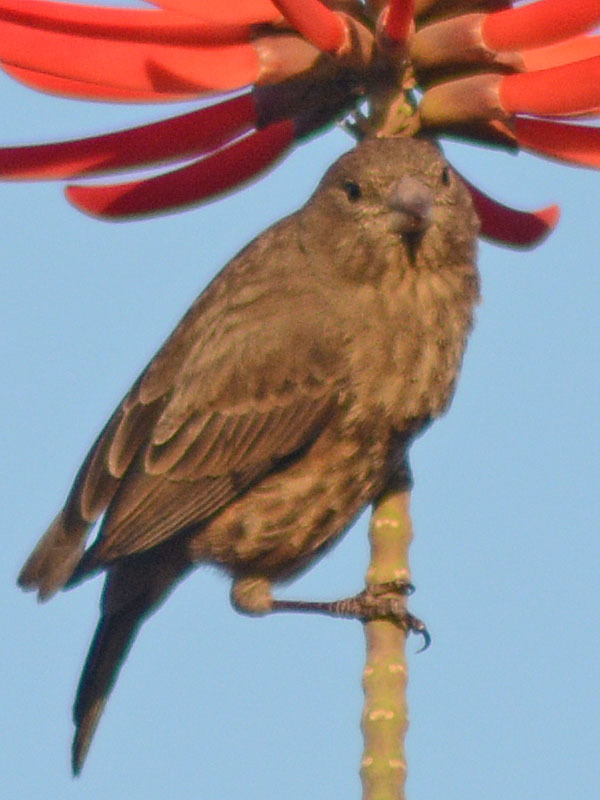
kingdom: Animalia
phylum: Chordata
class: Aves
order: Passeriformes
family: Fringillidae
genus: Haemorhous
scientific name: Haemorhous mexicanus
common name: House finch
